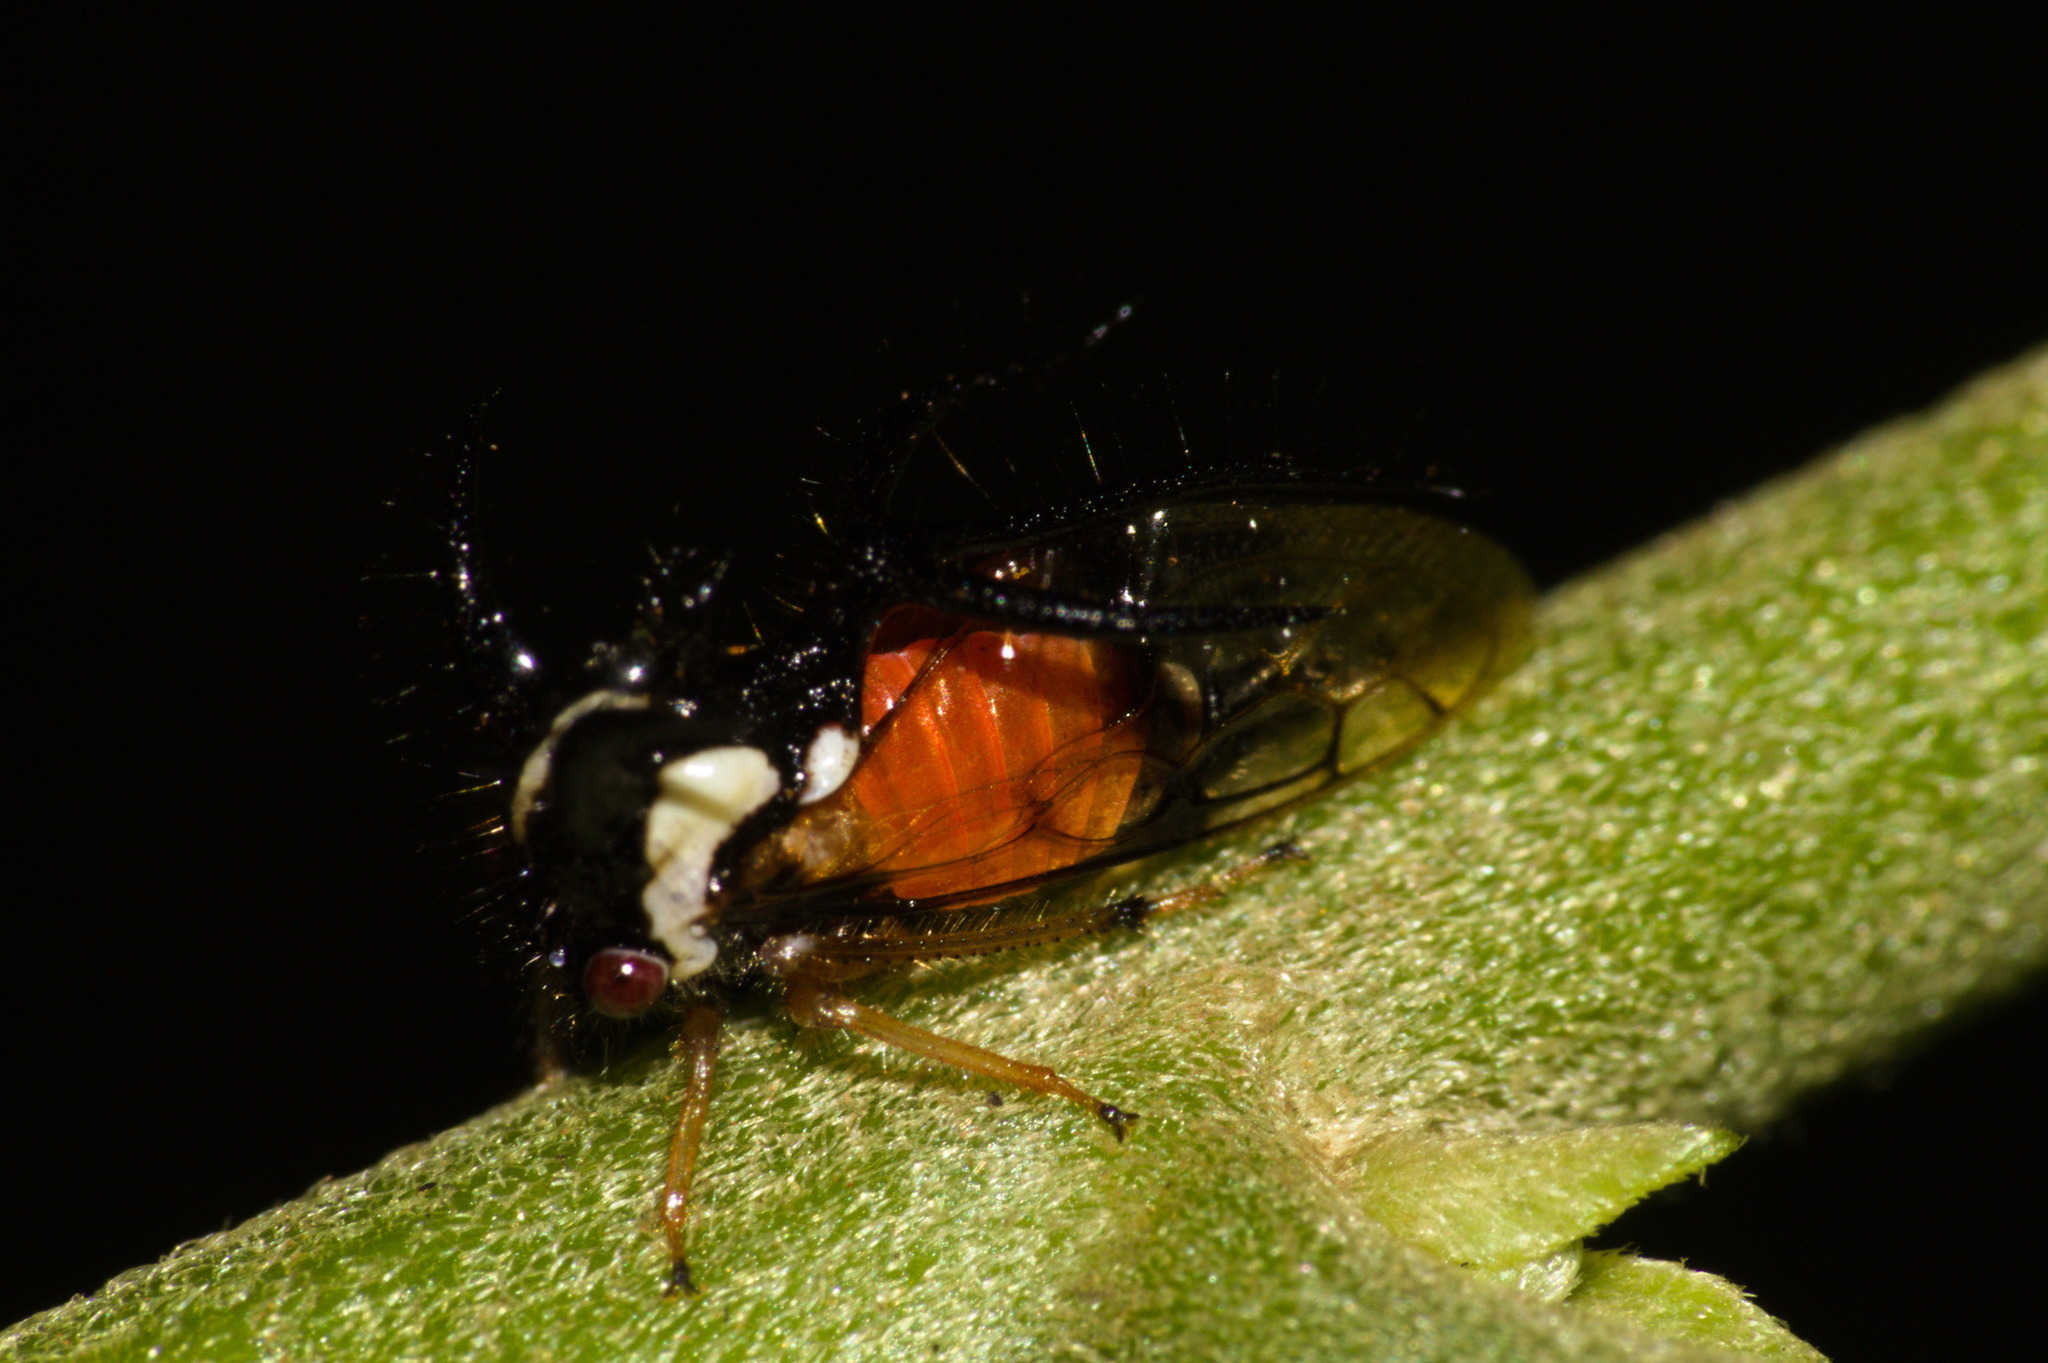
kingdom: Animalia
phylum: Arthropoda
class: Insecta
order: Hemiptera
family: Membracidae
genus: Cyphonia
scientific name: Cyphonia trifida
